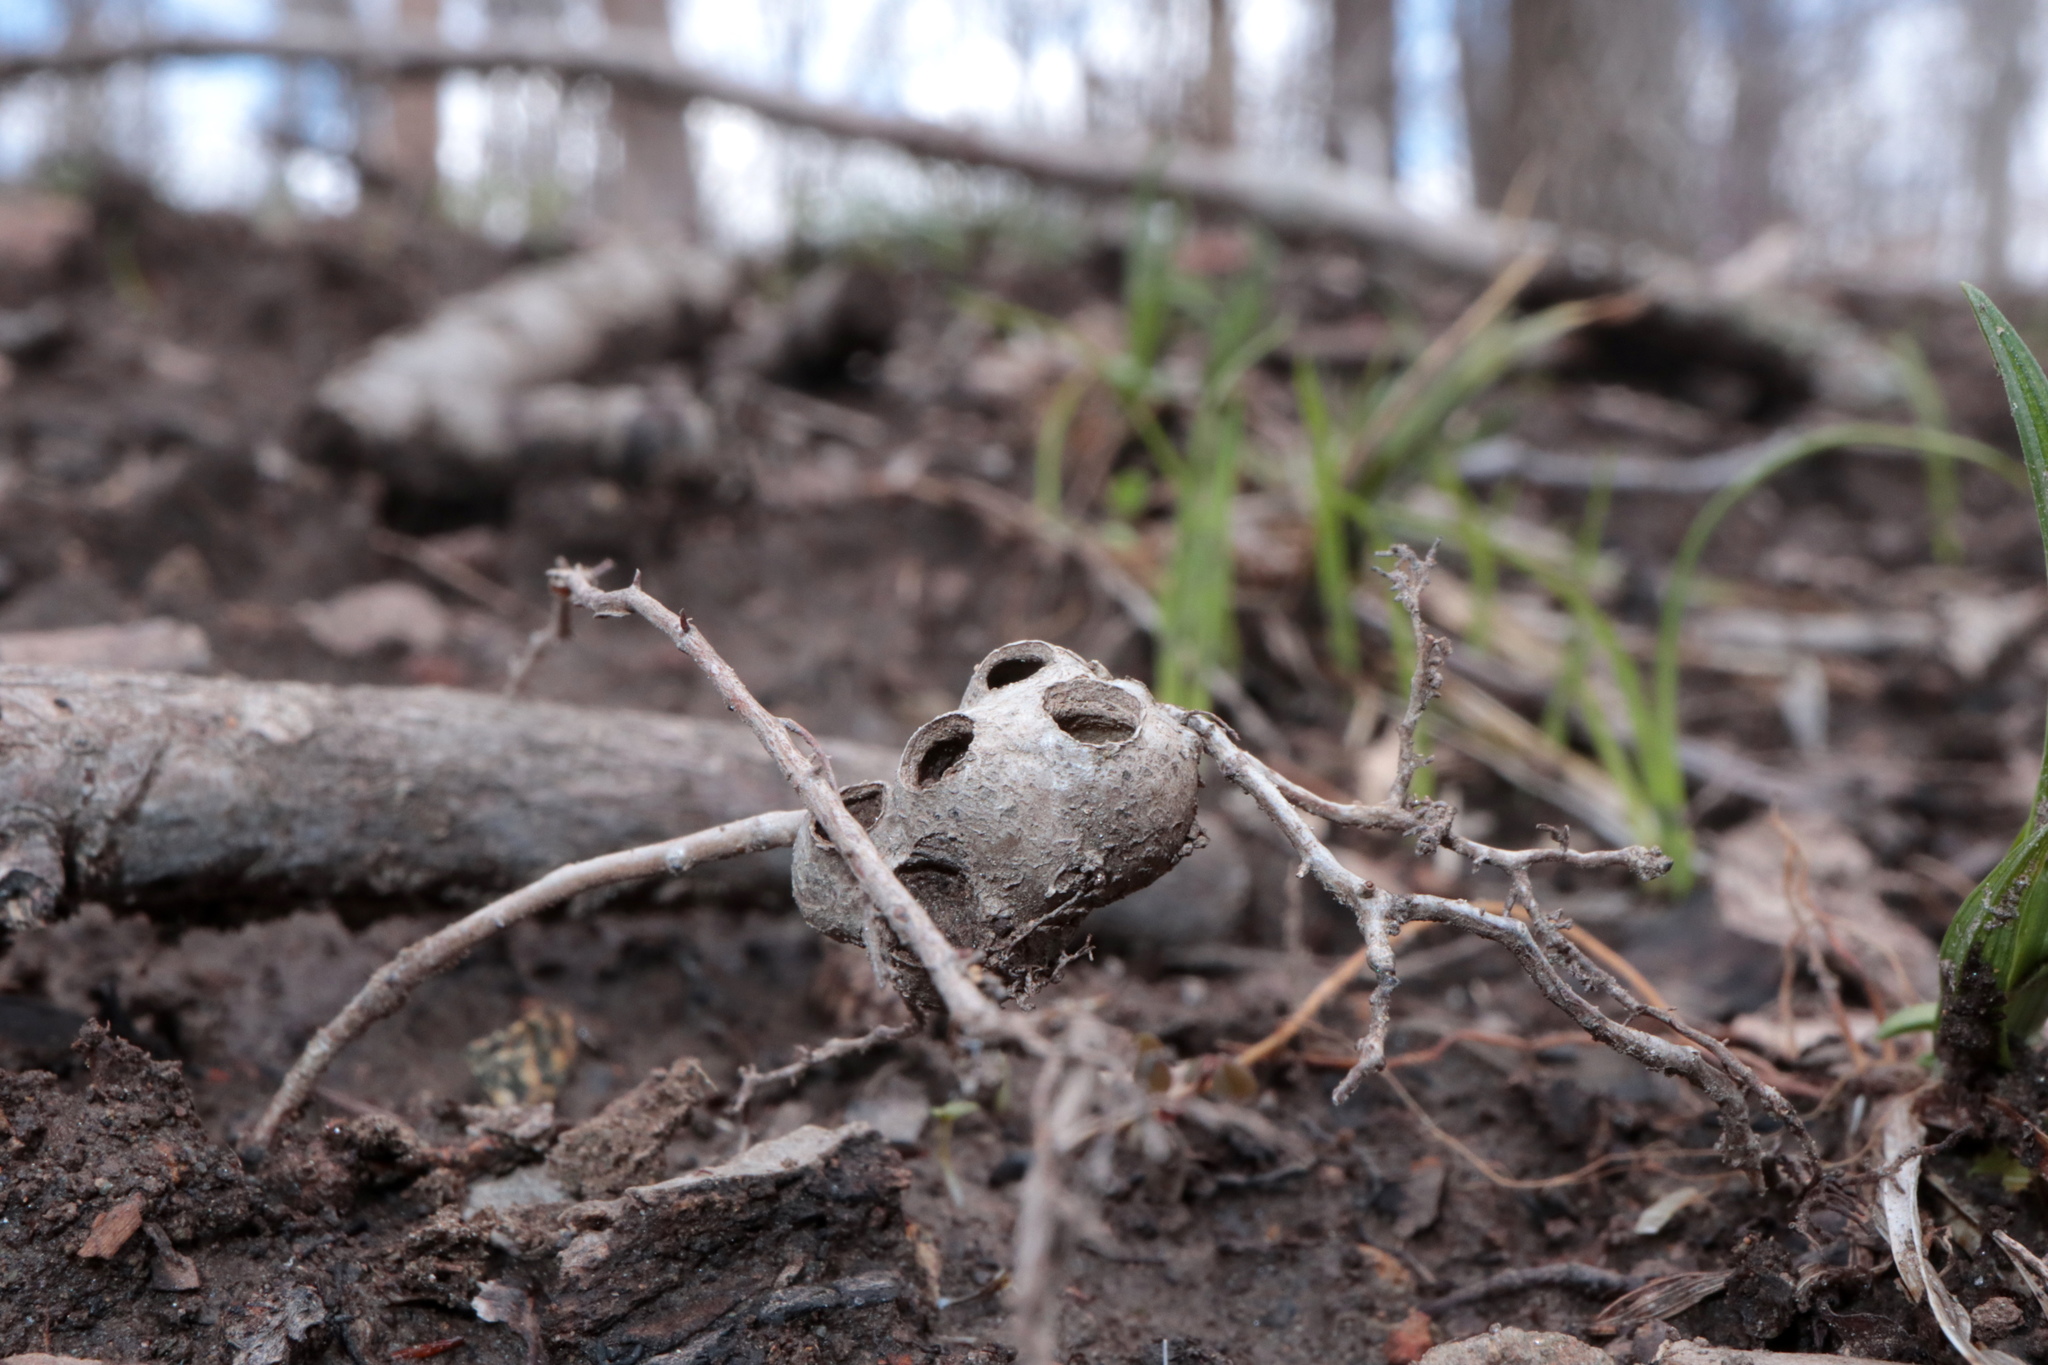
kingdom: Animalia
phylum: Arthropoda
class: Insecta
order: Hymenoptera
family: Cynipidae
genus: Callirhytis
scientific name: Callirhytis
